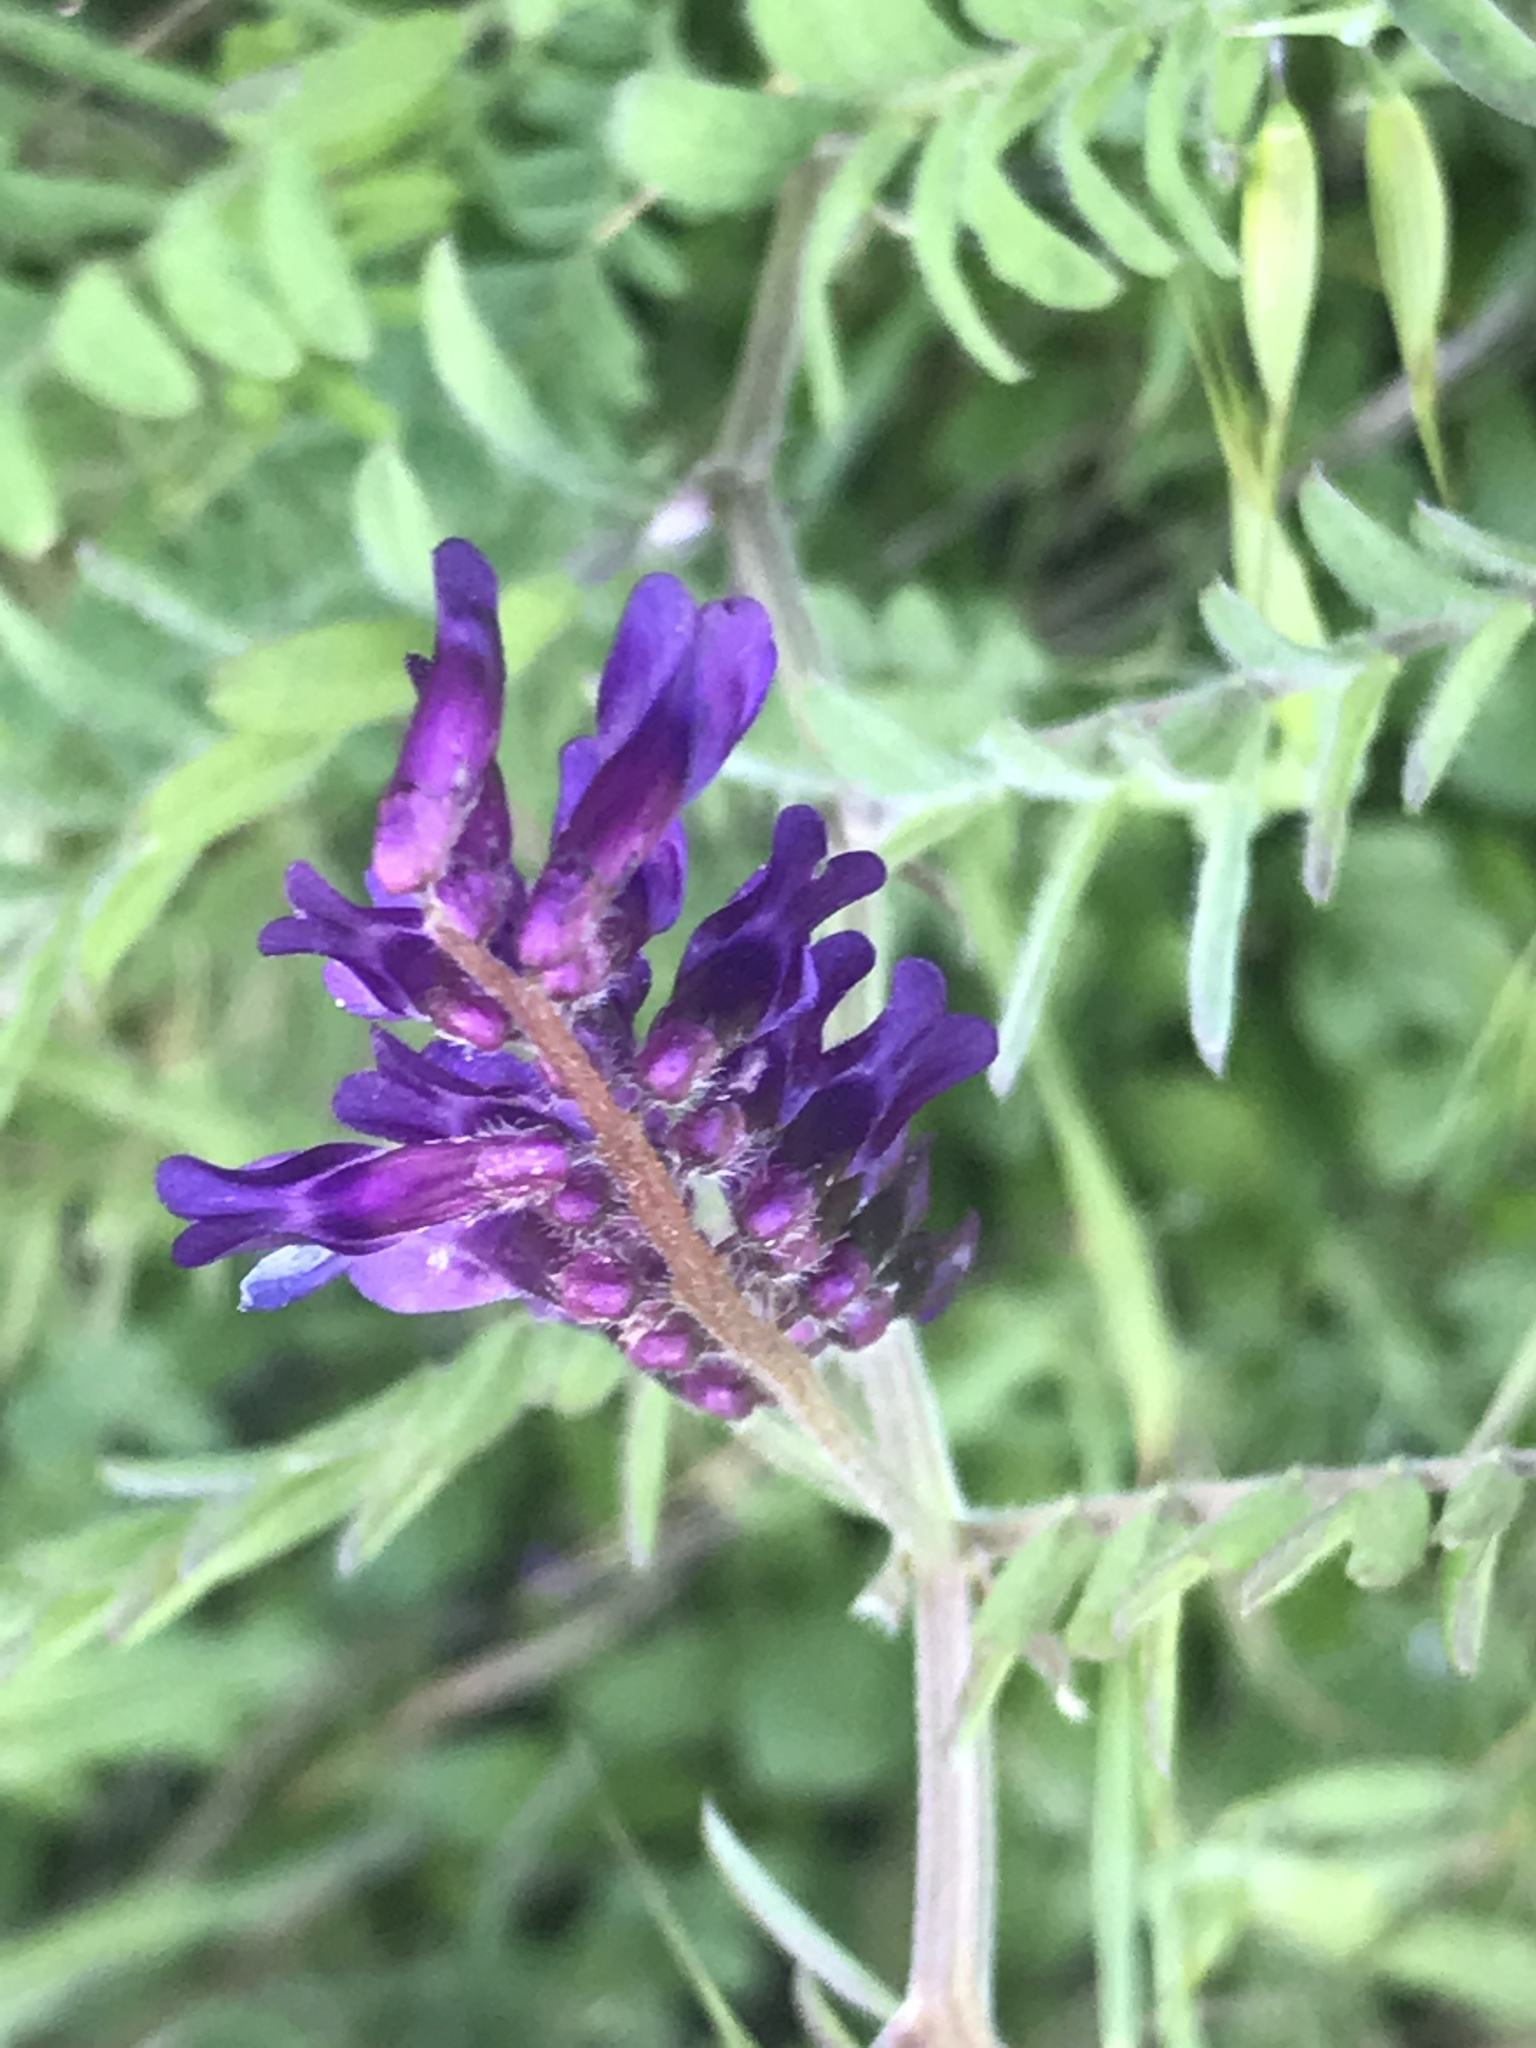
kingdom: Plantae
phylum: Tracheophyta
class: Magnoliopsida
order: Fabales
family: Fabaceae
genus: Vicia
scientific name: Vicia villosa
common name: Fodder vetch
